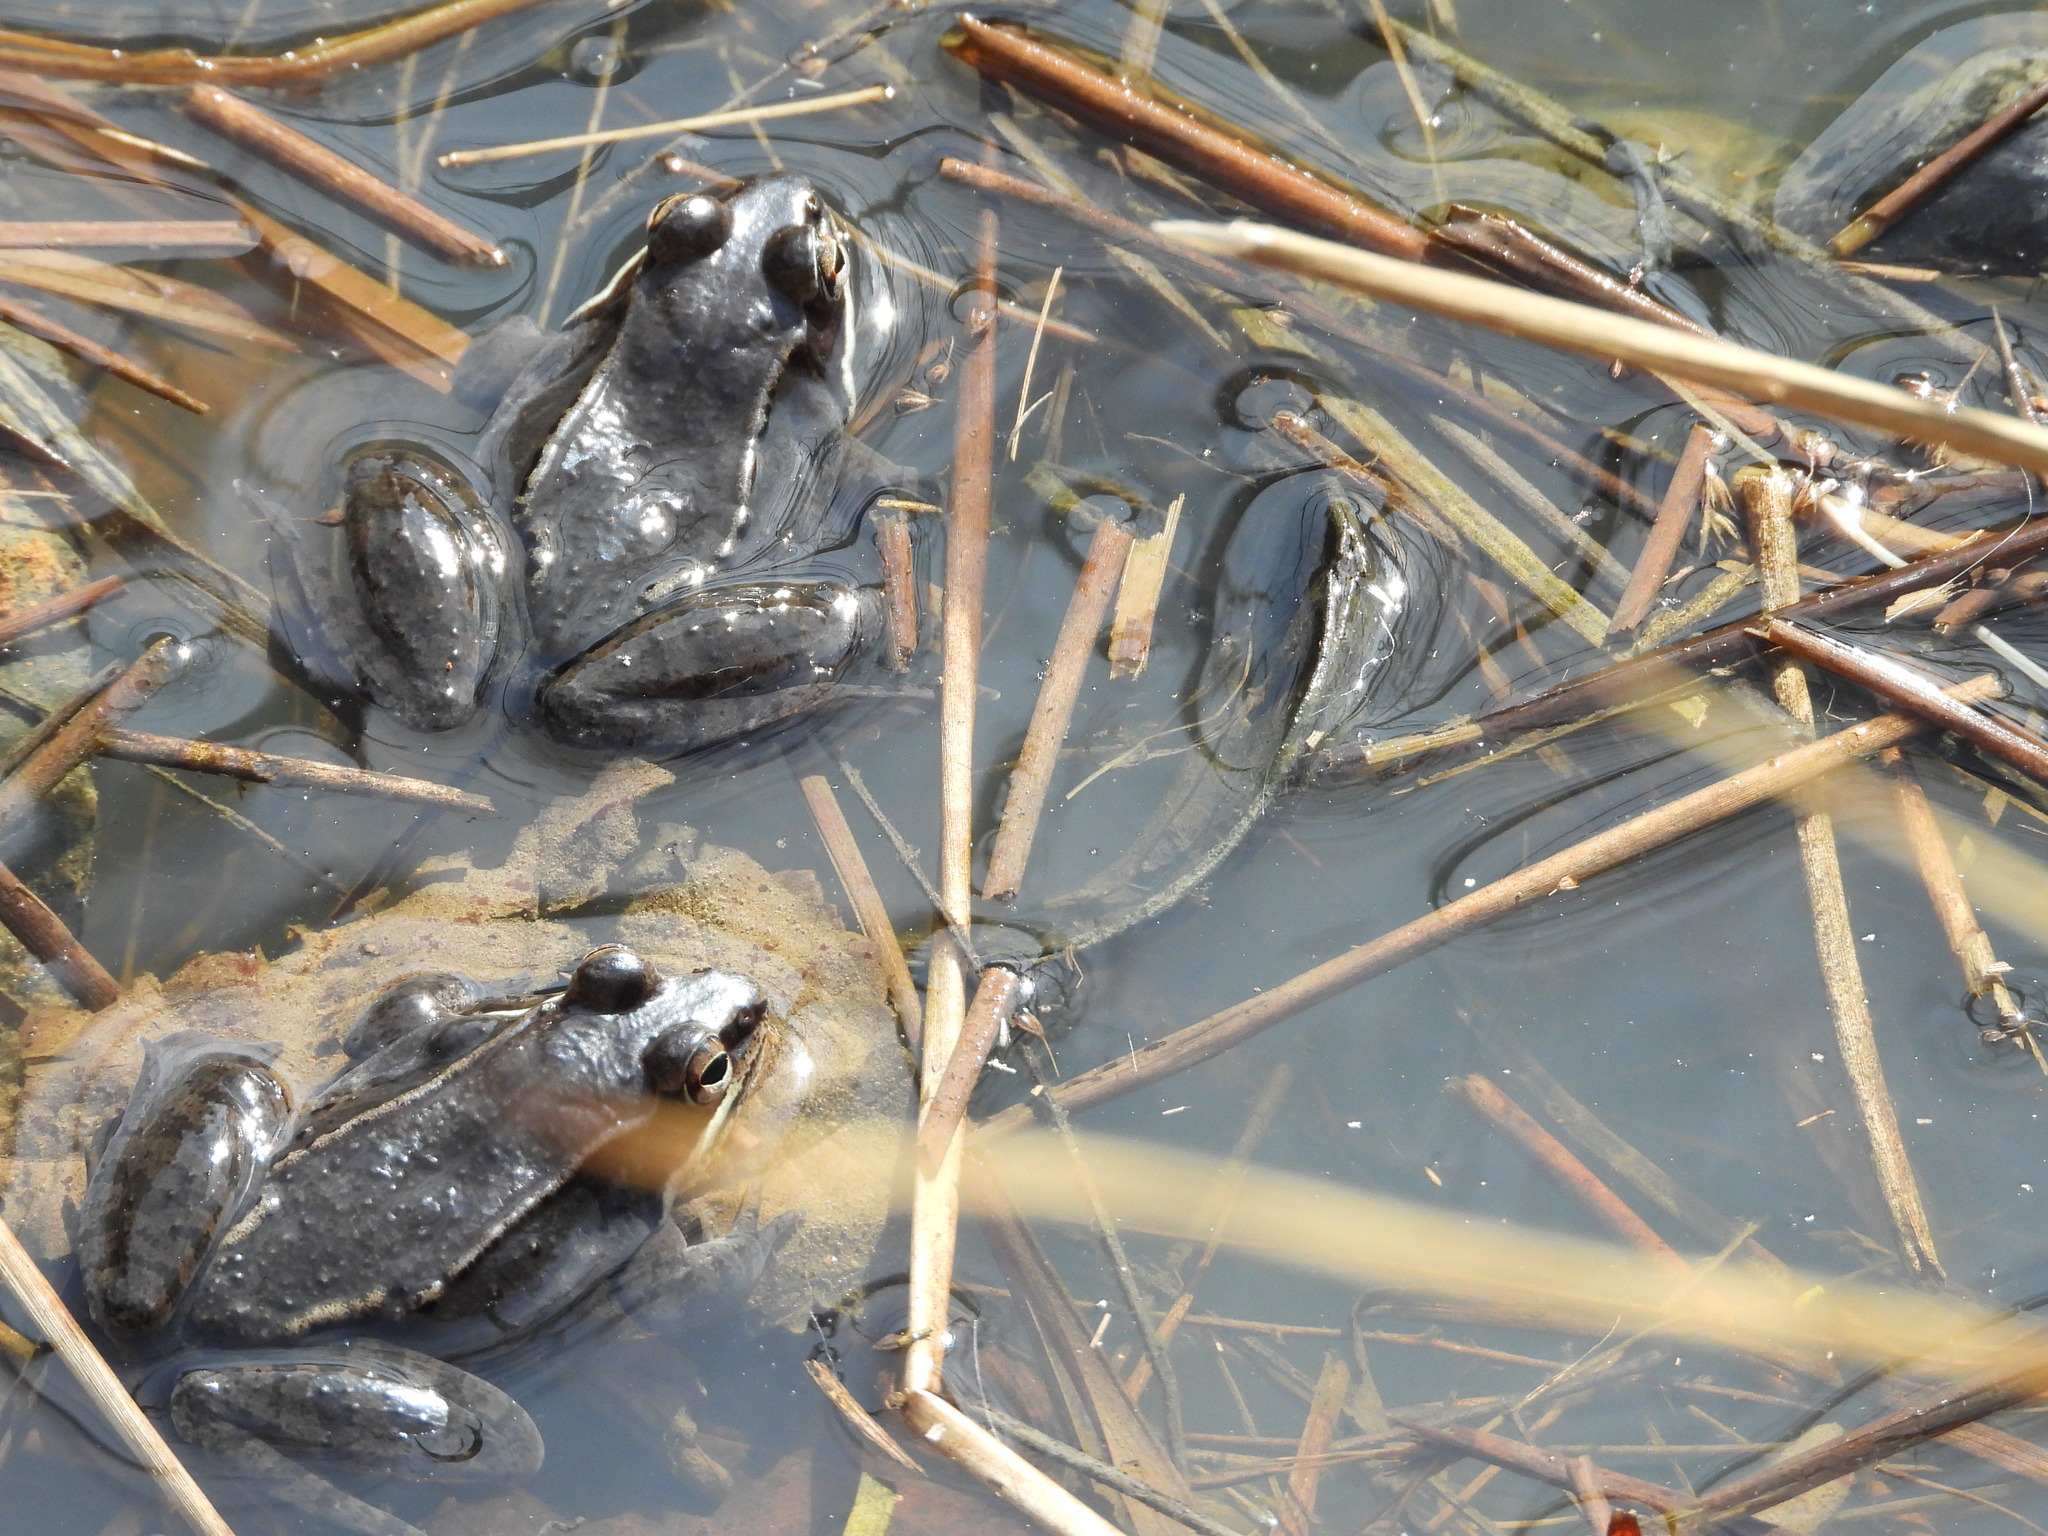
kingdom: Animalia
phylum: Chordata
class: Amphibia
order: Anura
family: Ranidae
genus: Lithobates
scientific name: Lithobates sylvaticus
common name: Wood frog
